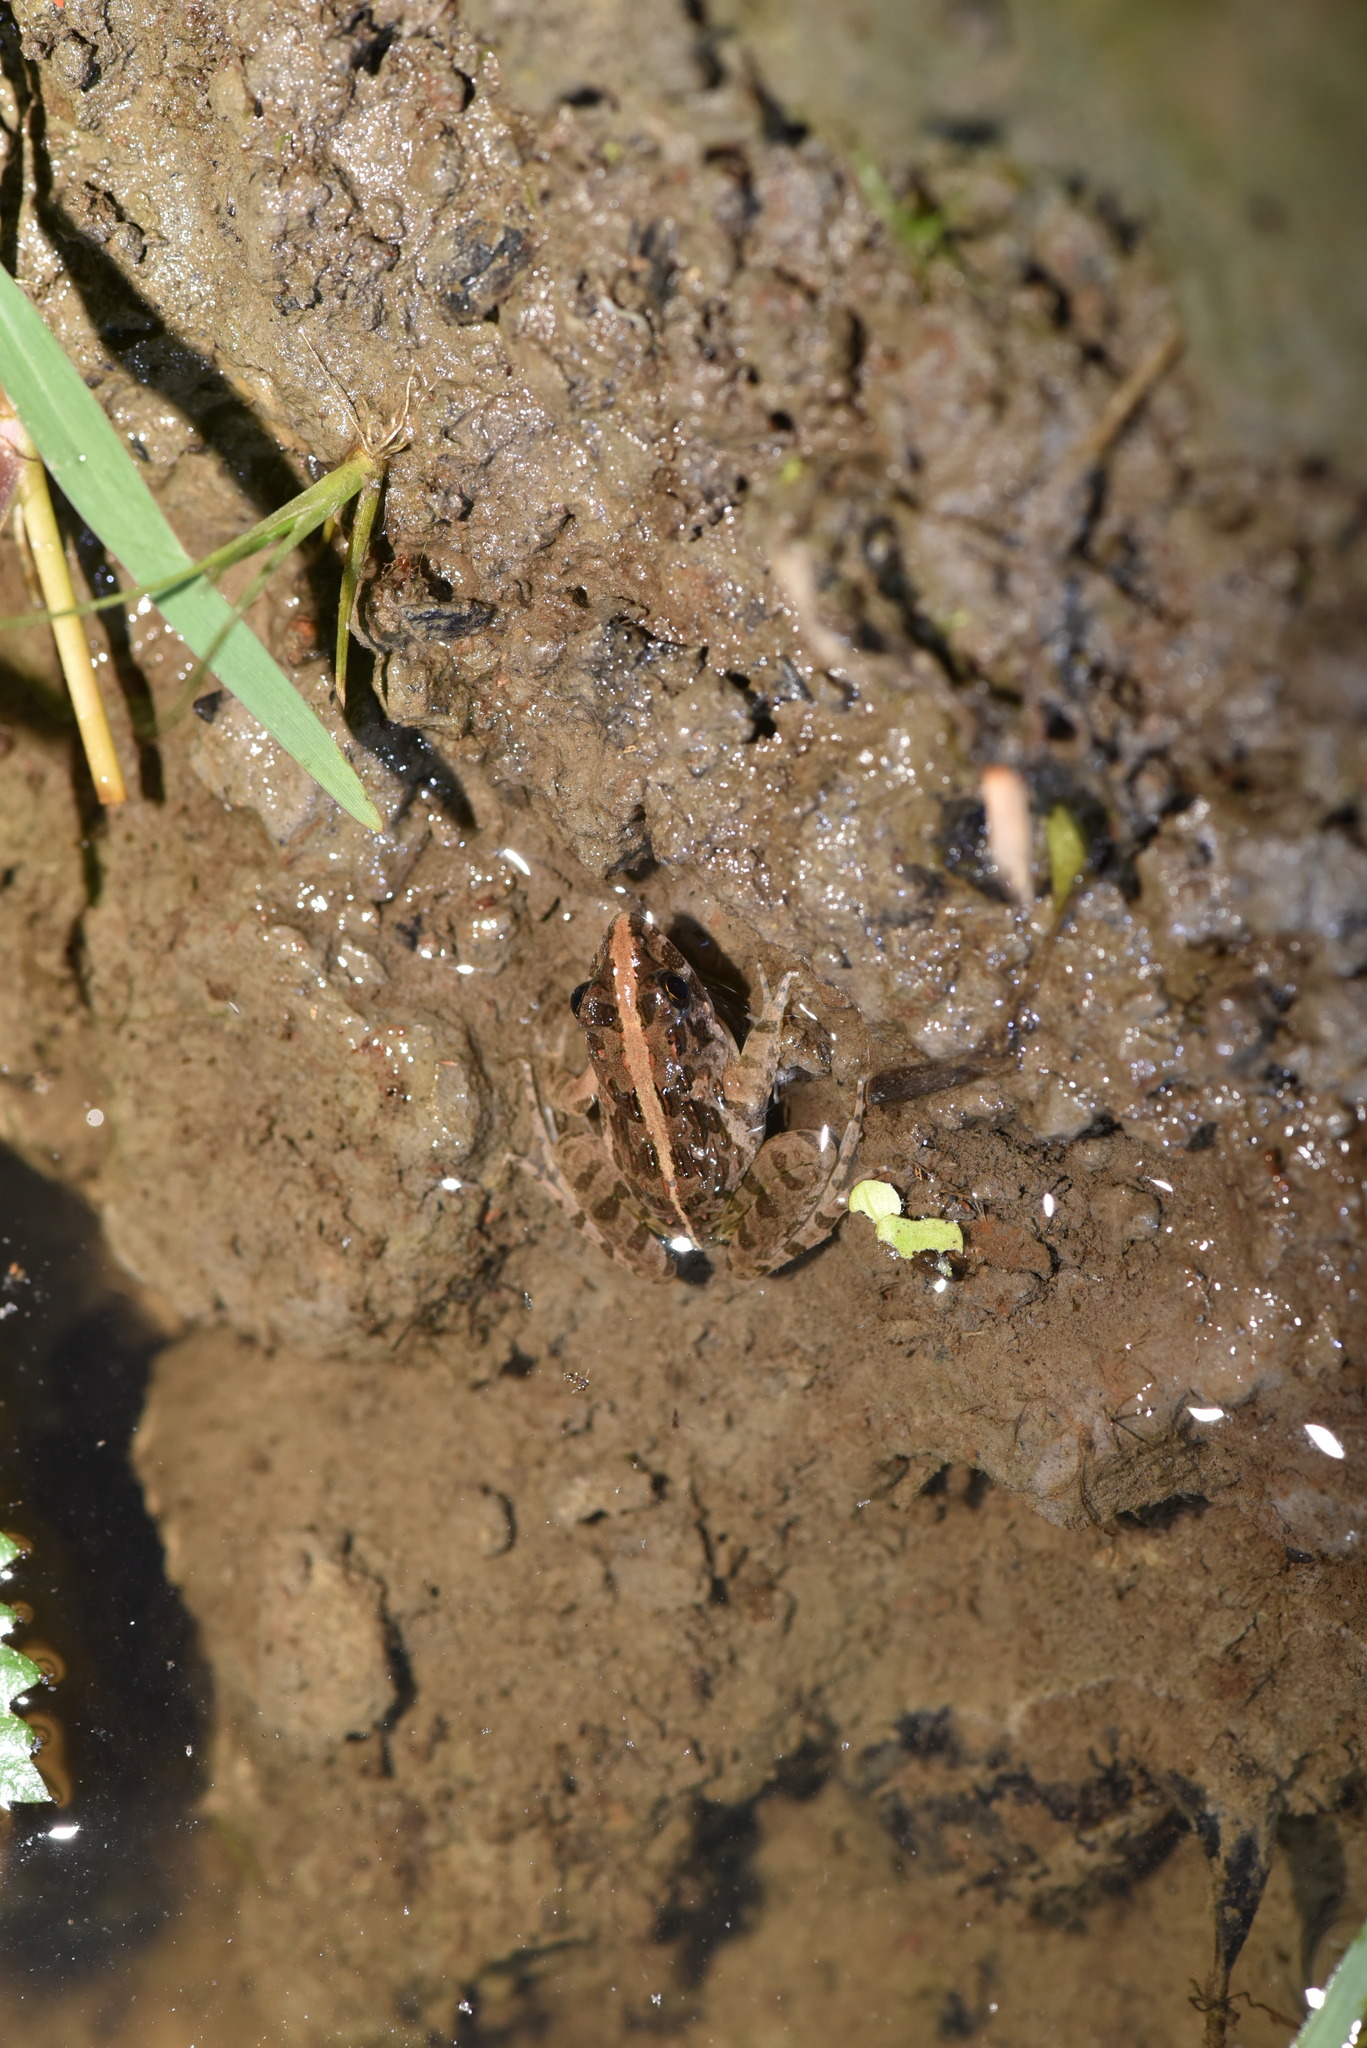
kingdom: Animalia
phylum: Chordata
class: Amphibia
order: Anura
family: Dicroglossidae
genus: Fejervarya
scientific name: Fejervarya limnocharis
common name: Asian grass frog/common pond frog/field frog/grass frog/indian rice frog
